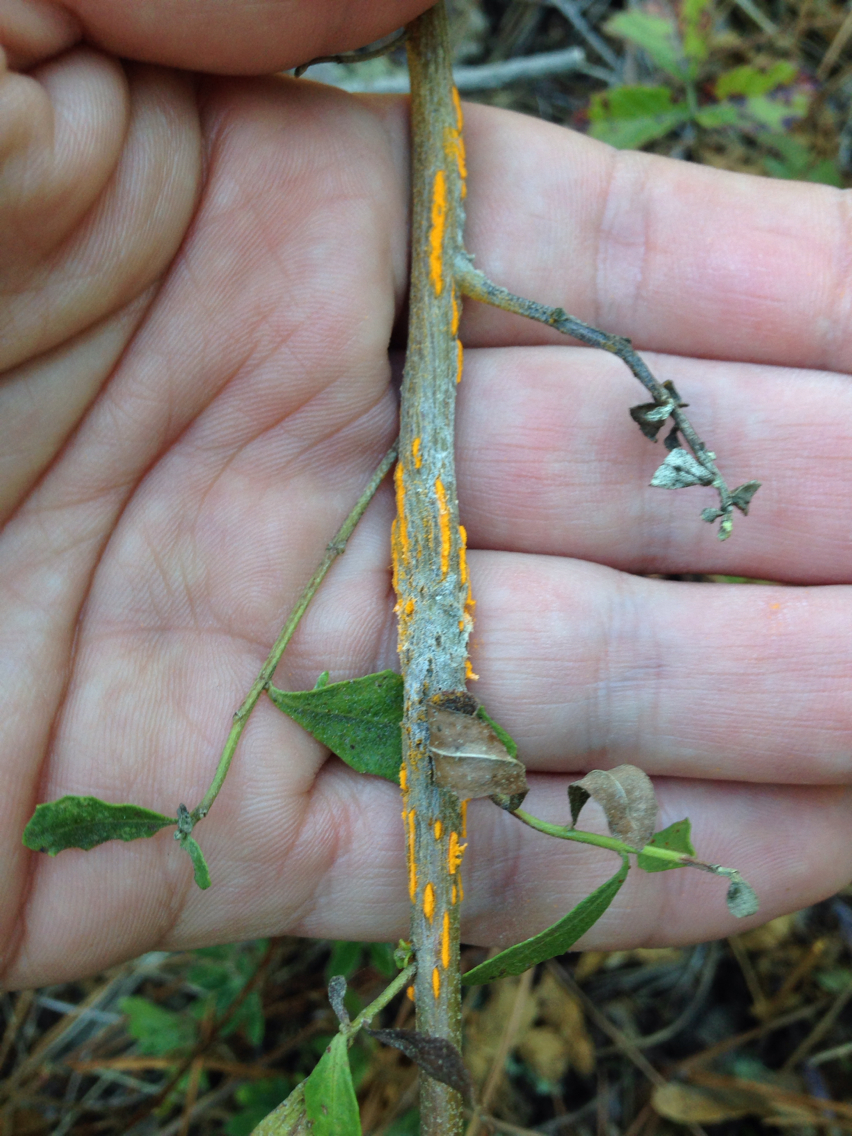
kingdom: Fungi
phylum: Basidiomycota
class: Pucciniomycetes
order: Pucciniales
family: Pucciniaceae
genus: Eriosporangium
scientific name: Eriosporangium evadens
